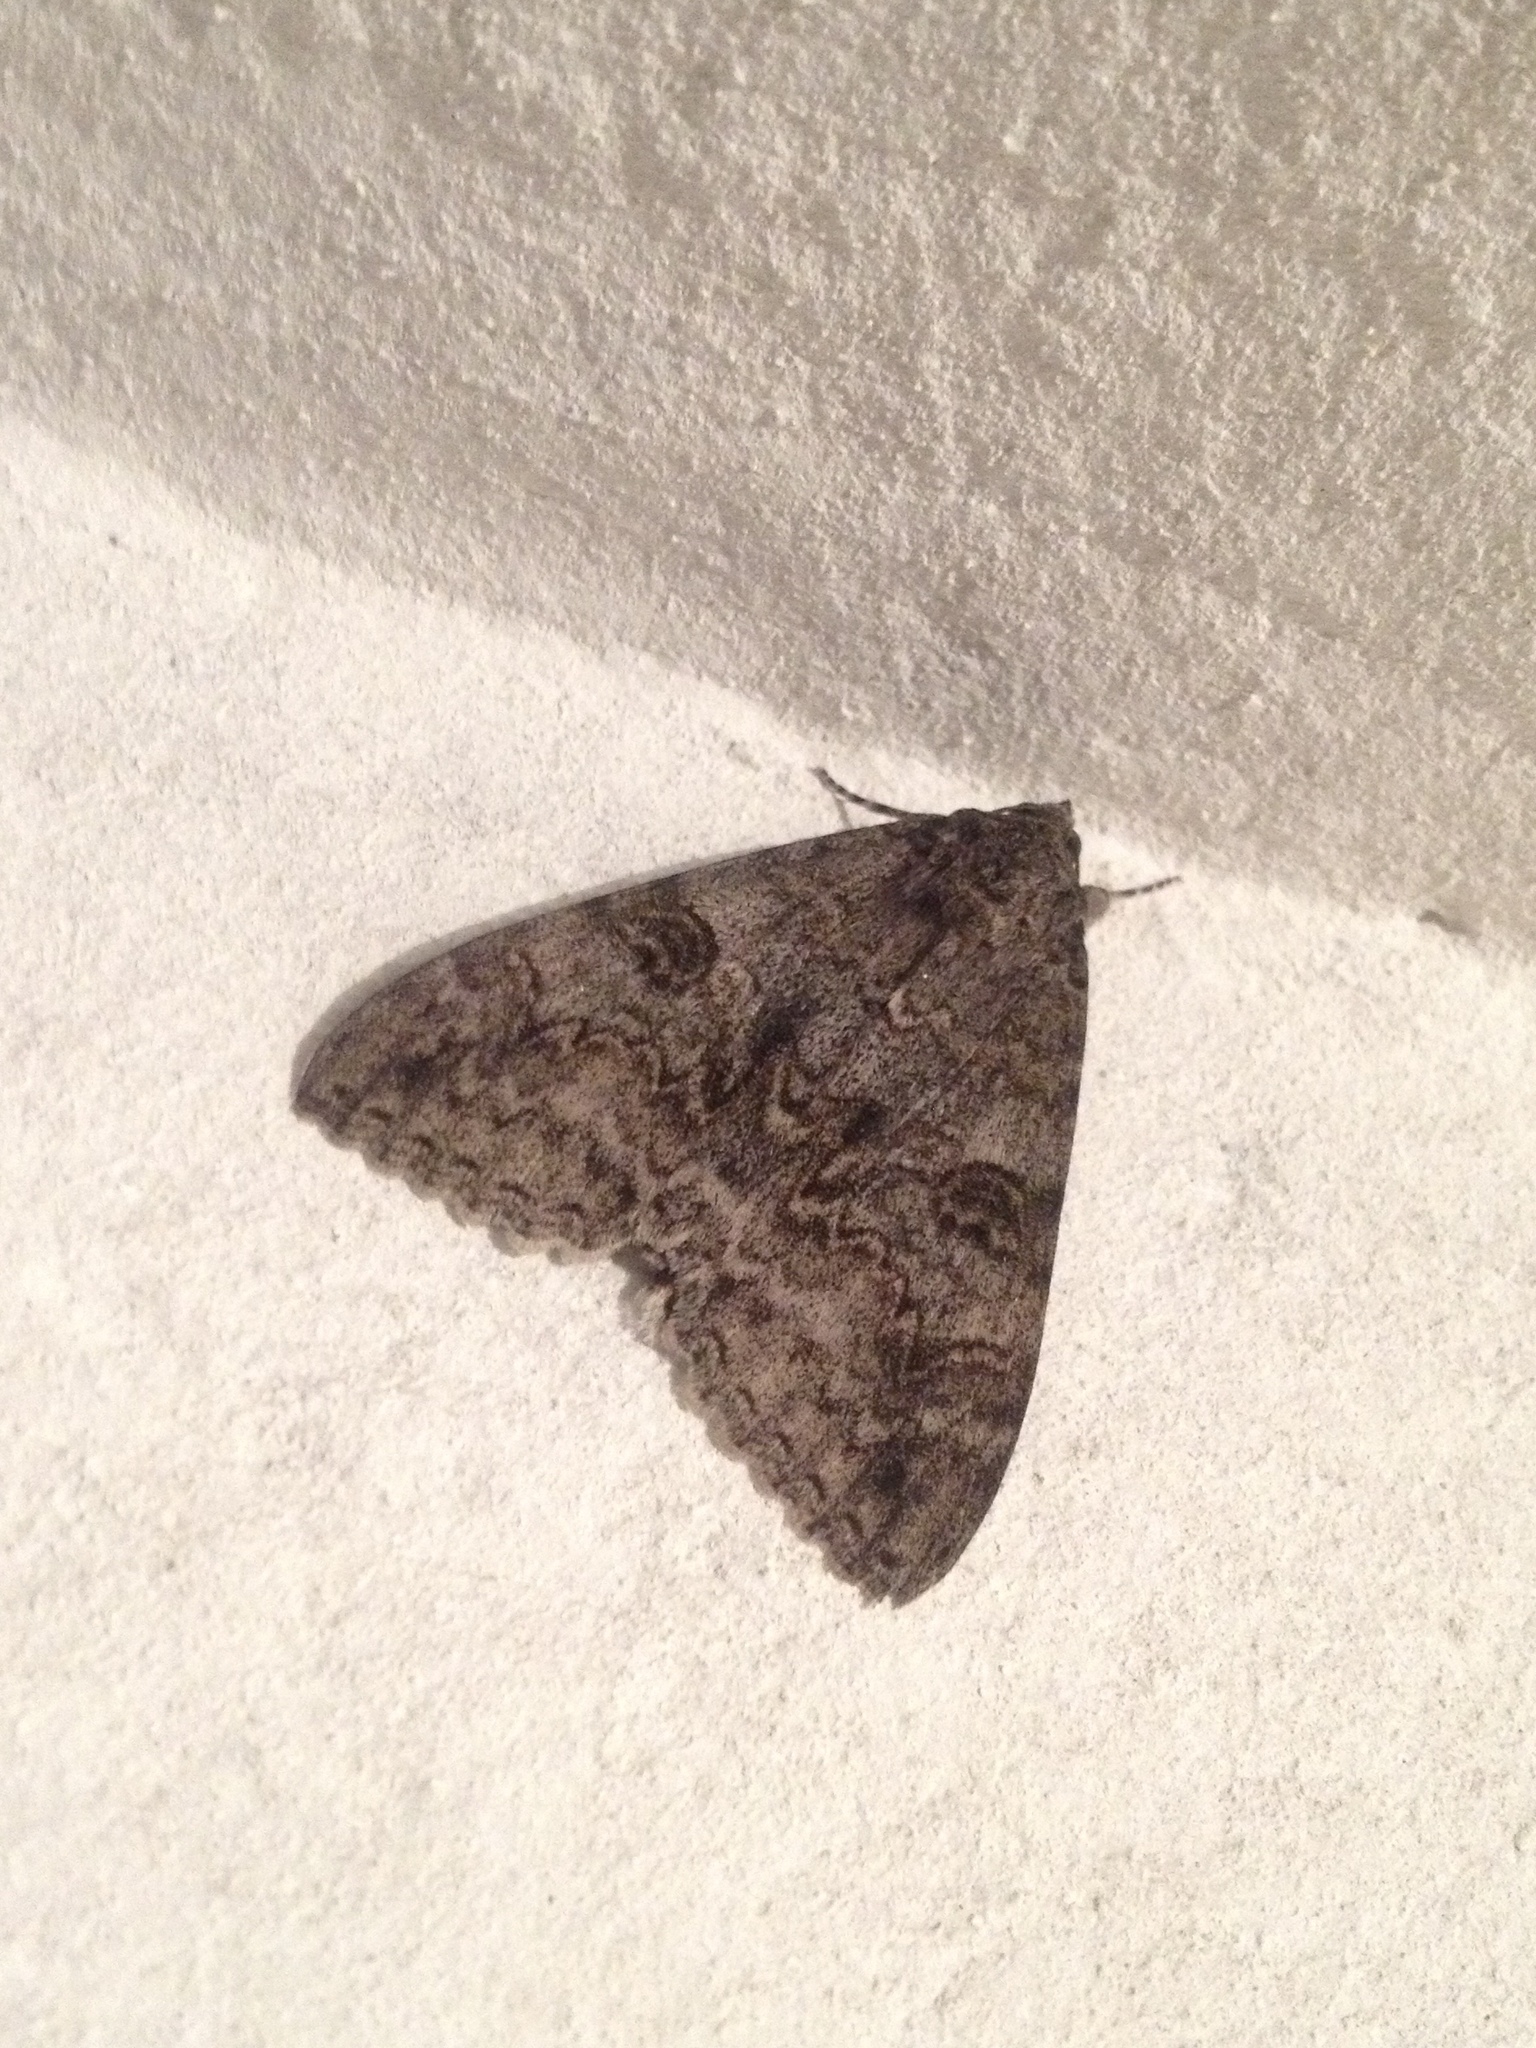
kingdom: Animalia
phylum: Arthropoda
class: Insecta
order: Lepidoptera
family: Erebidae
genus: Catocala
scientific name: Catocala nupta
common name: Red underwing
